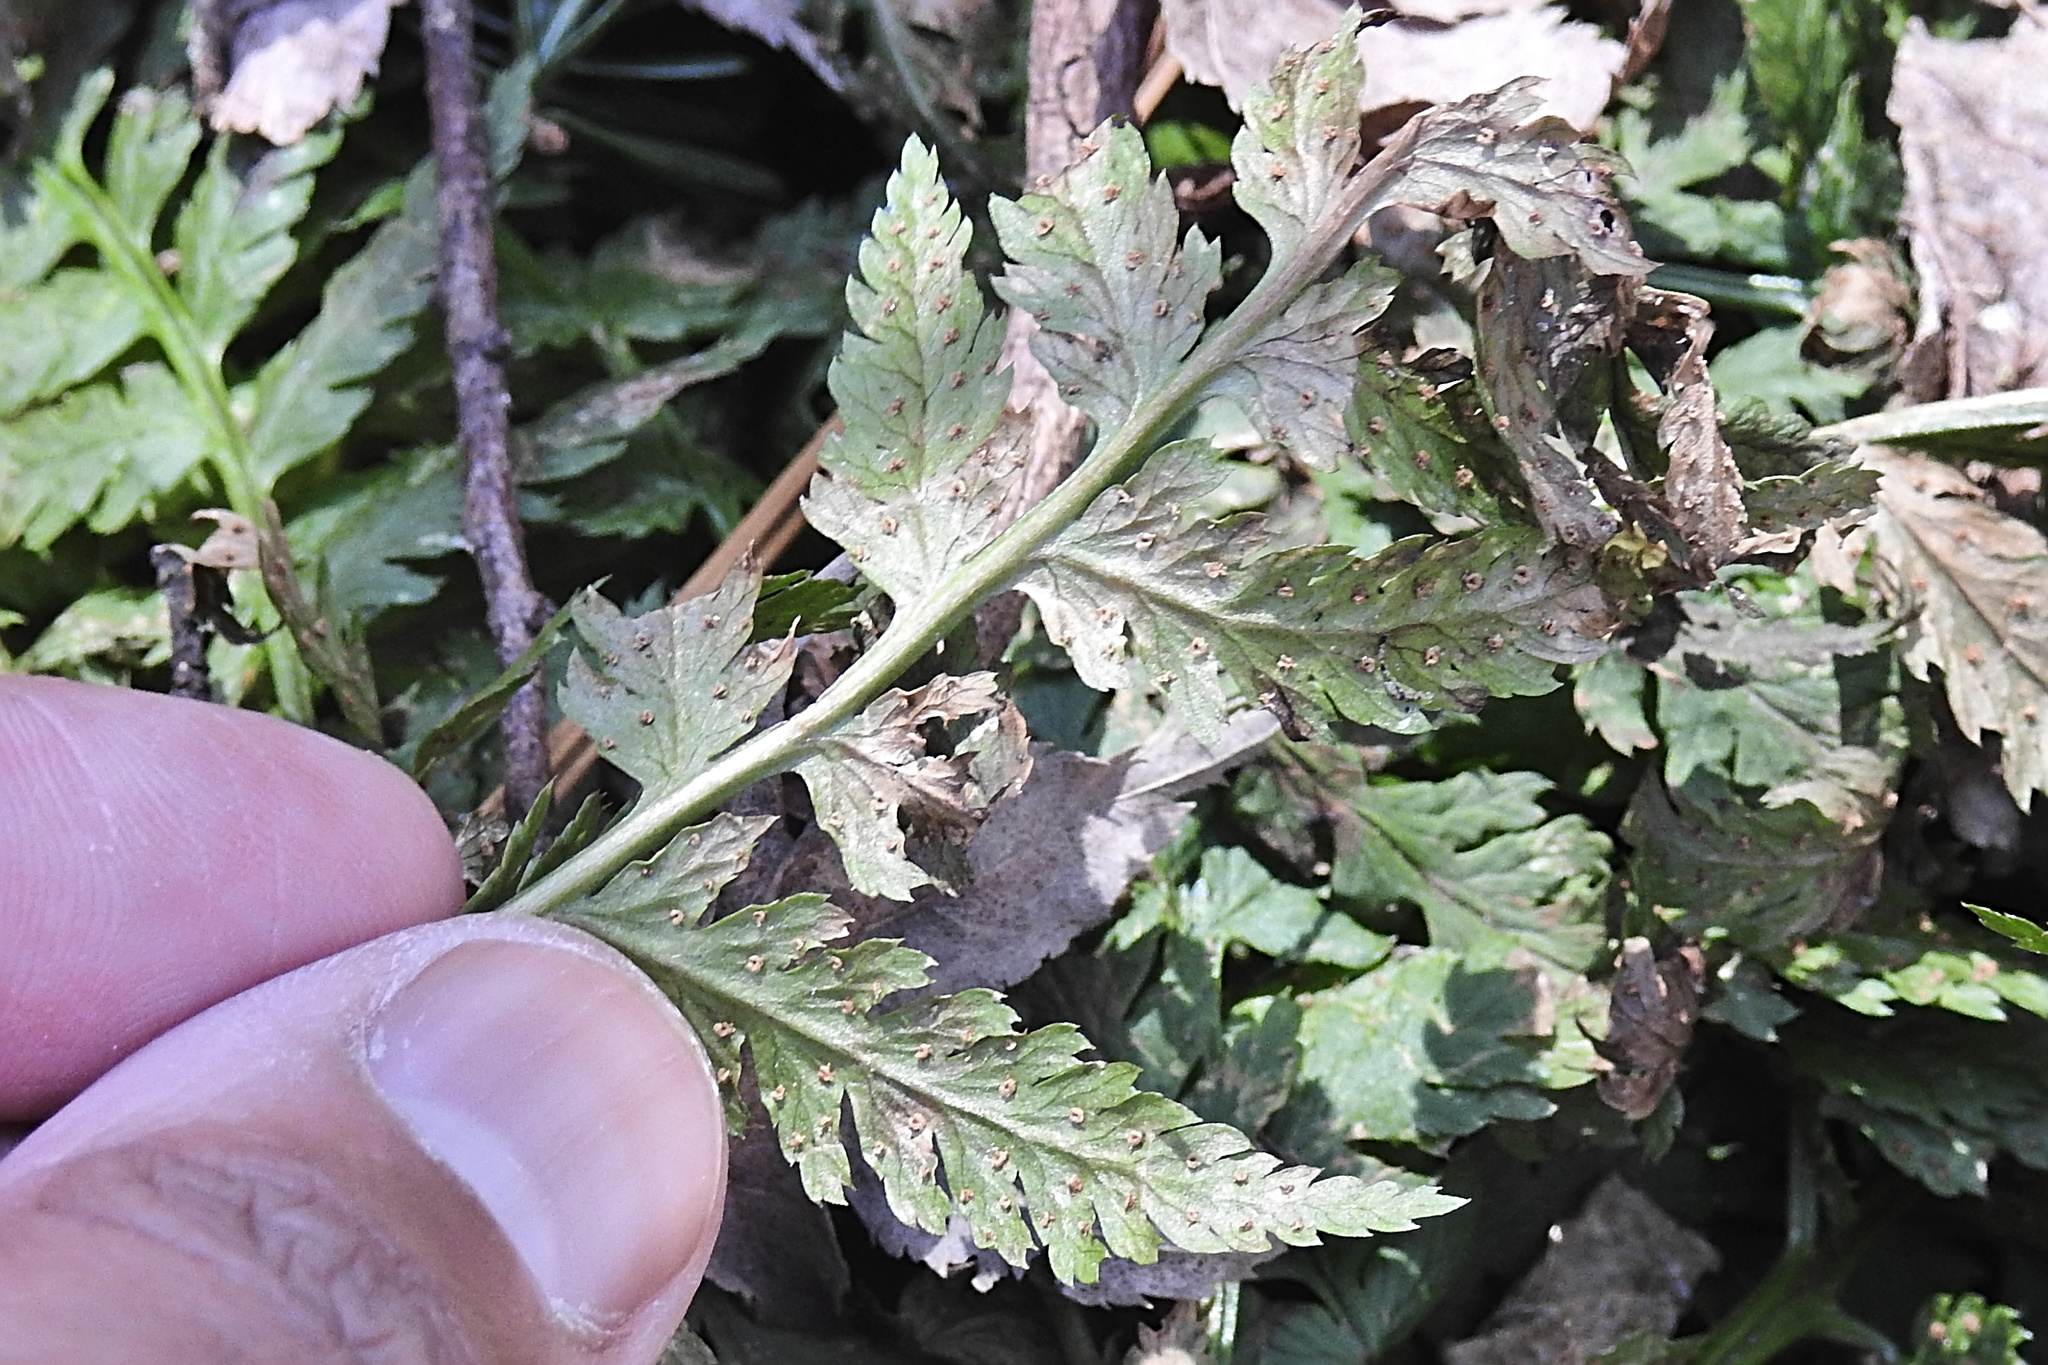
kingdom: Plantae
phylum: Tracheophyta
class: Polypodiopsida
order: Polypodiales
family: Dryopteridaceae
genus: Dryopteris
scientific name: Dryopteris intermedia
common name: Evergreen wood fern
